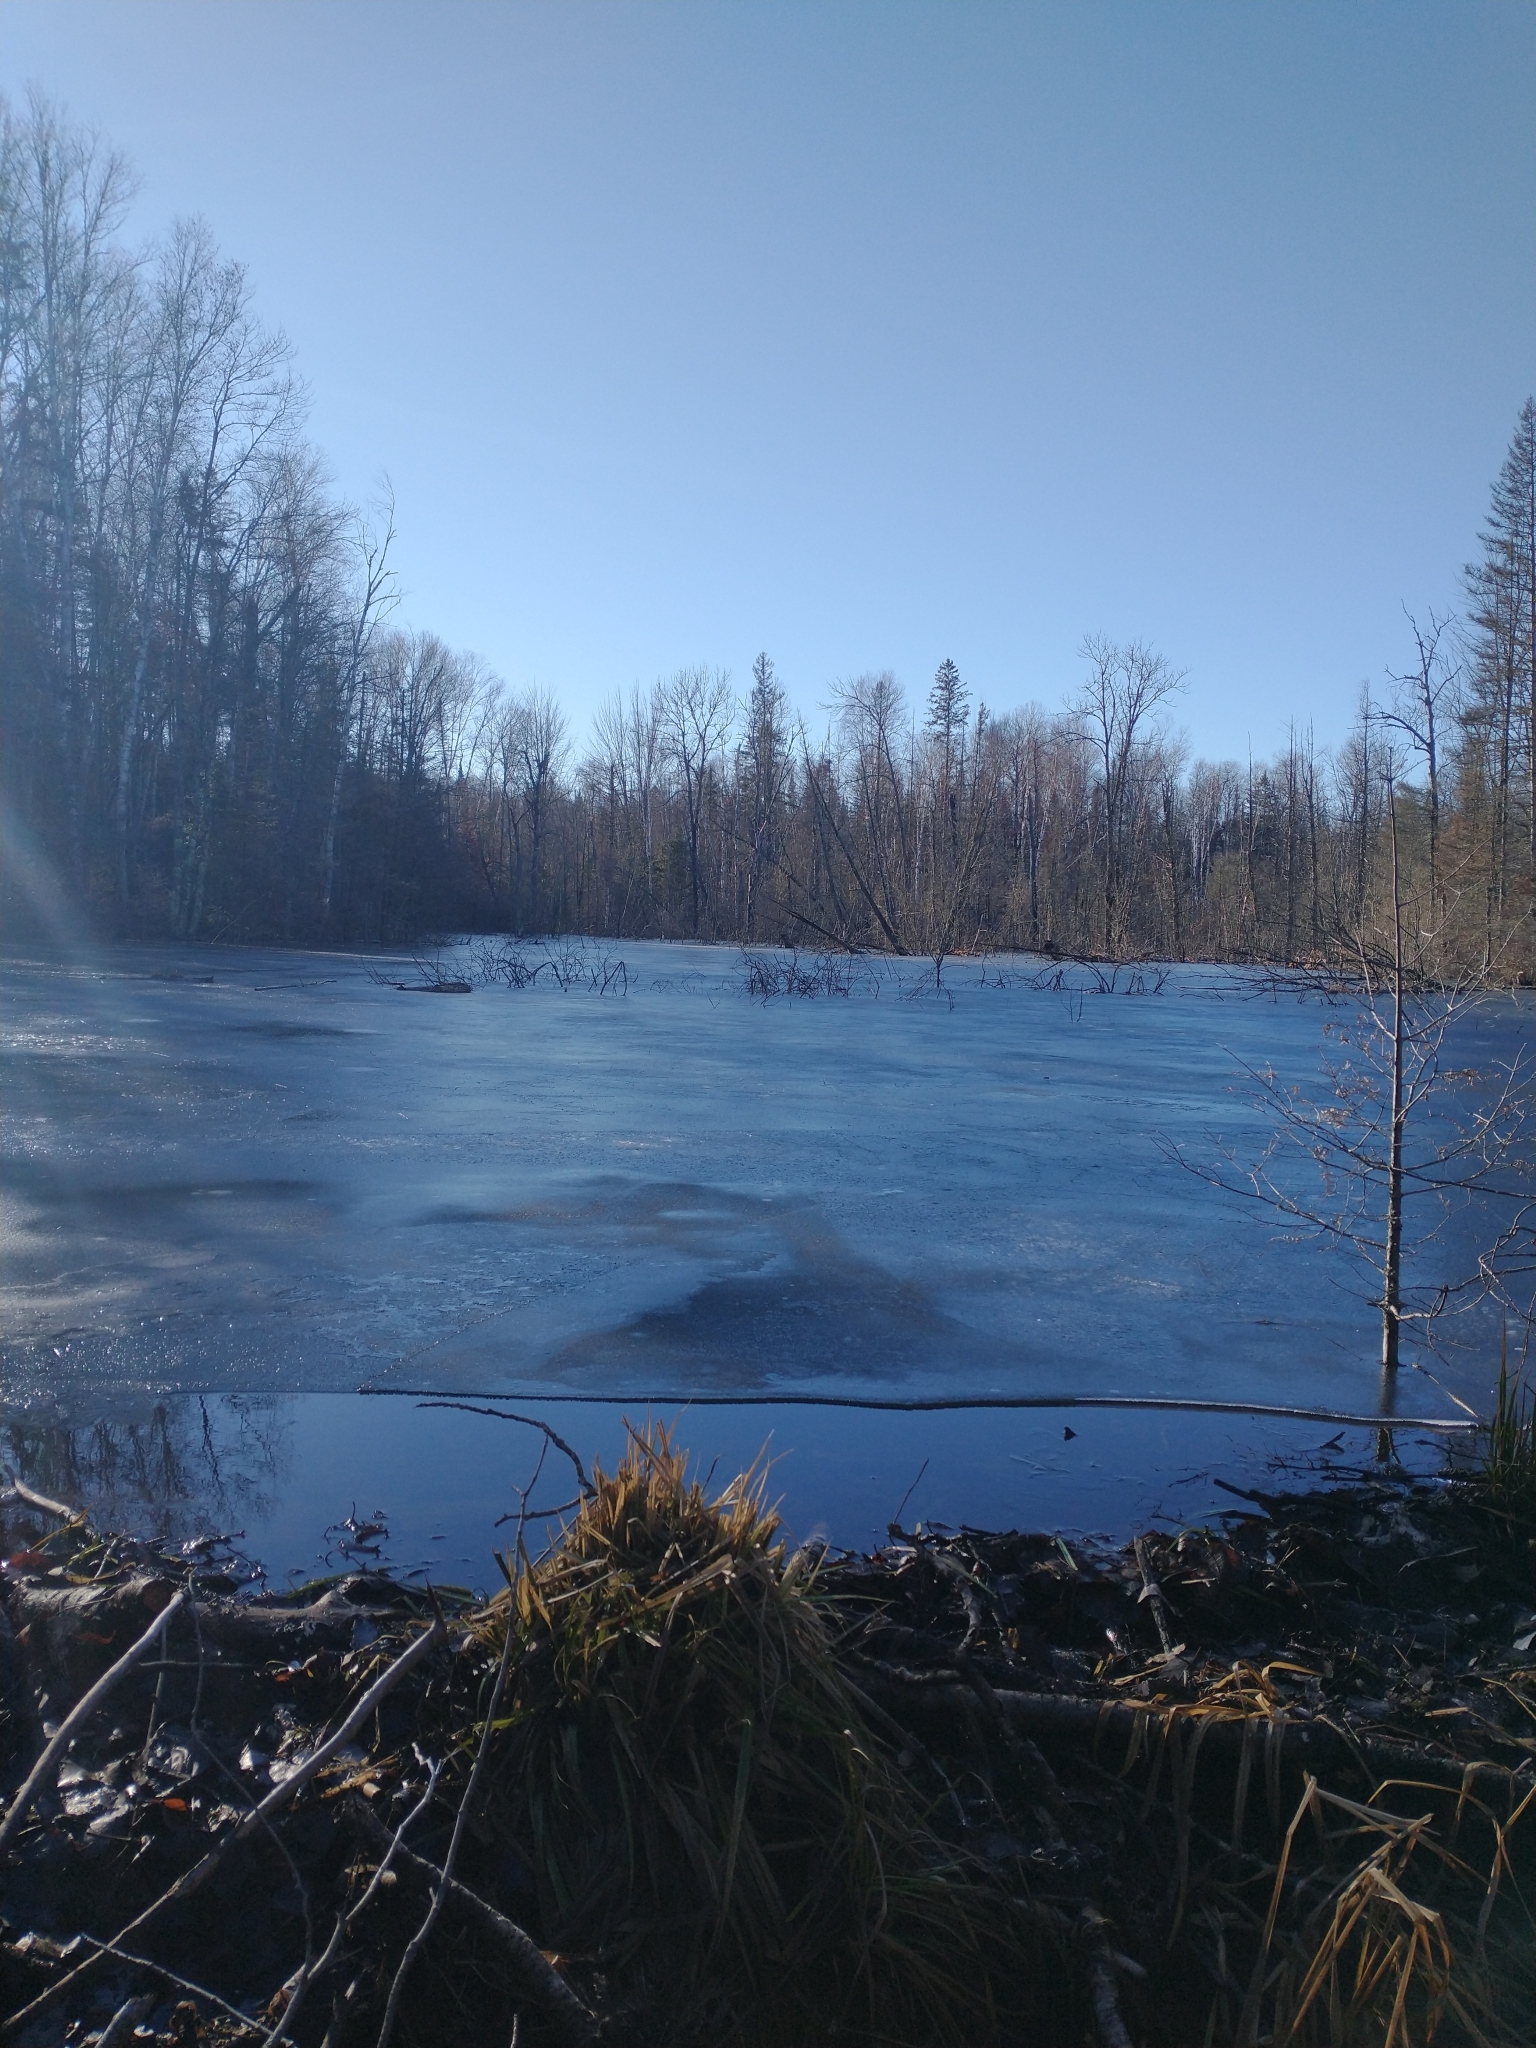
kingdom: Animalia
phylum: Chordata
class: Mammalia
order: Rodentia
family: Castoridae
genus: Castor
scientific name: Castor canadensis
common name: American beaver
